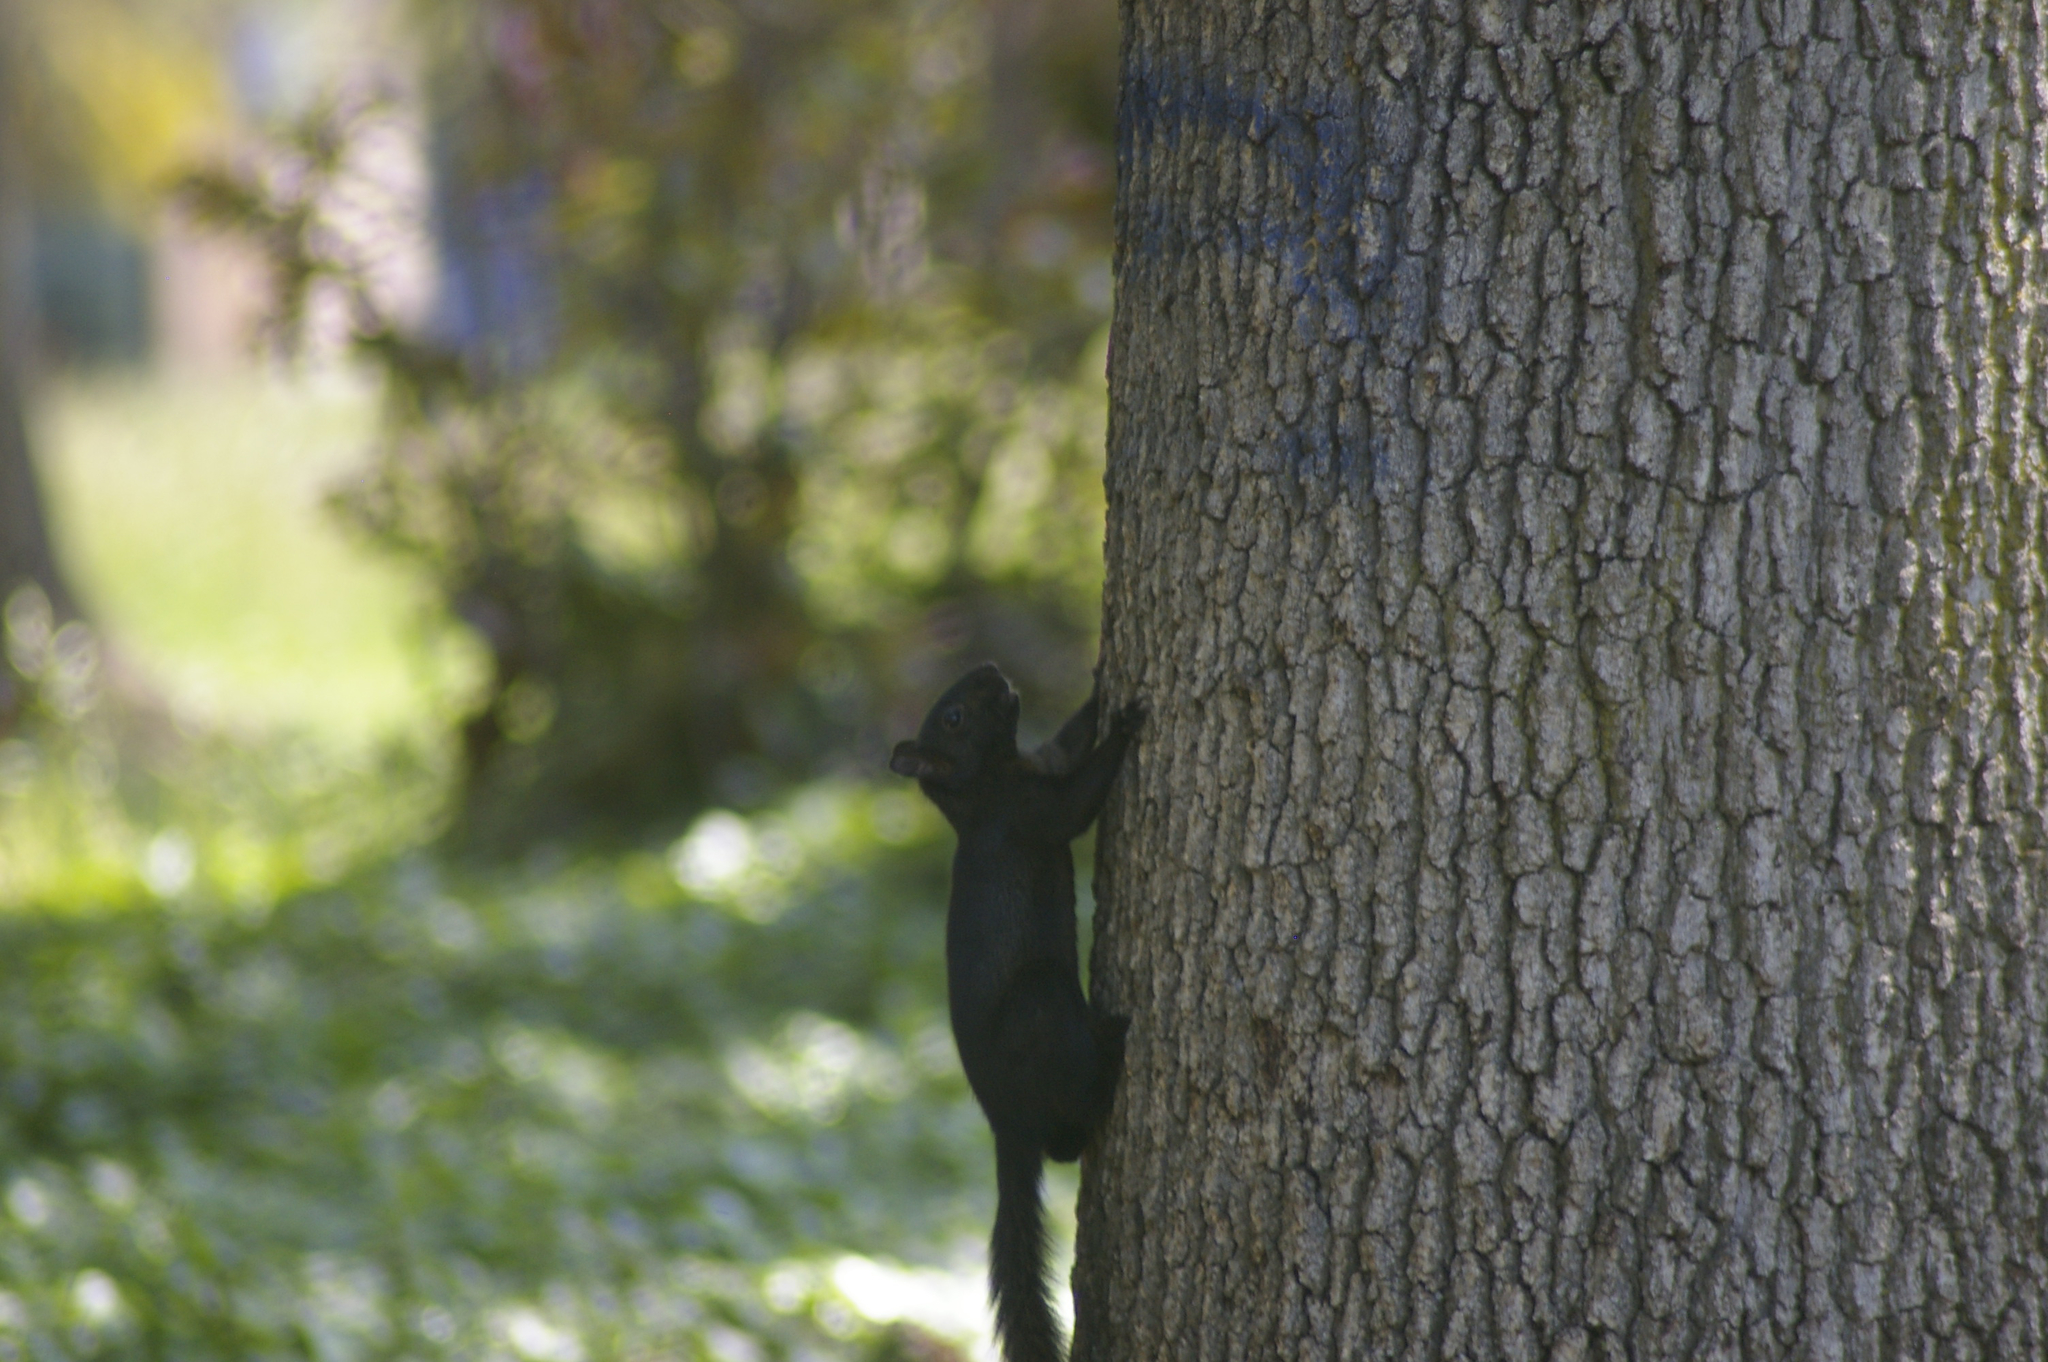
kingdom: Animalia
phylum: Chordata
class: Mammalia
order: Rodentia
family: Sciuridae
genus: Sciurus
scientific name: Sciurus carolinensis
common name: Eastern gray squirrel
